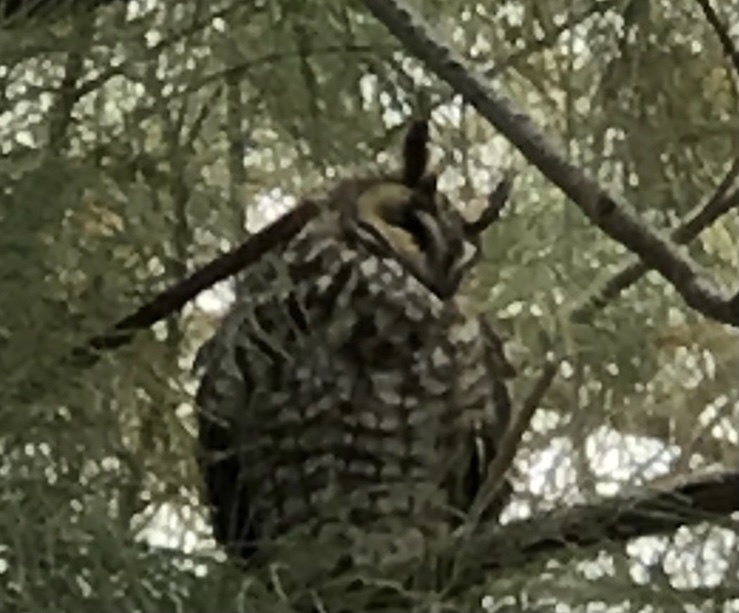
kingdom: Animalia
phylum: Chordata
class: Aves
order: Strigiformes
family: Strigidae
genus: Asio
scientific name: Asio otus
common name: Long-eared owl
